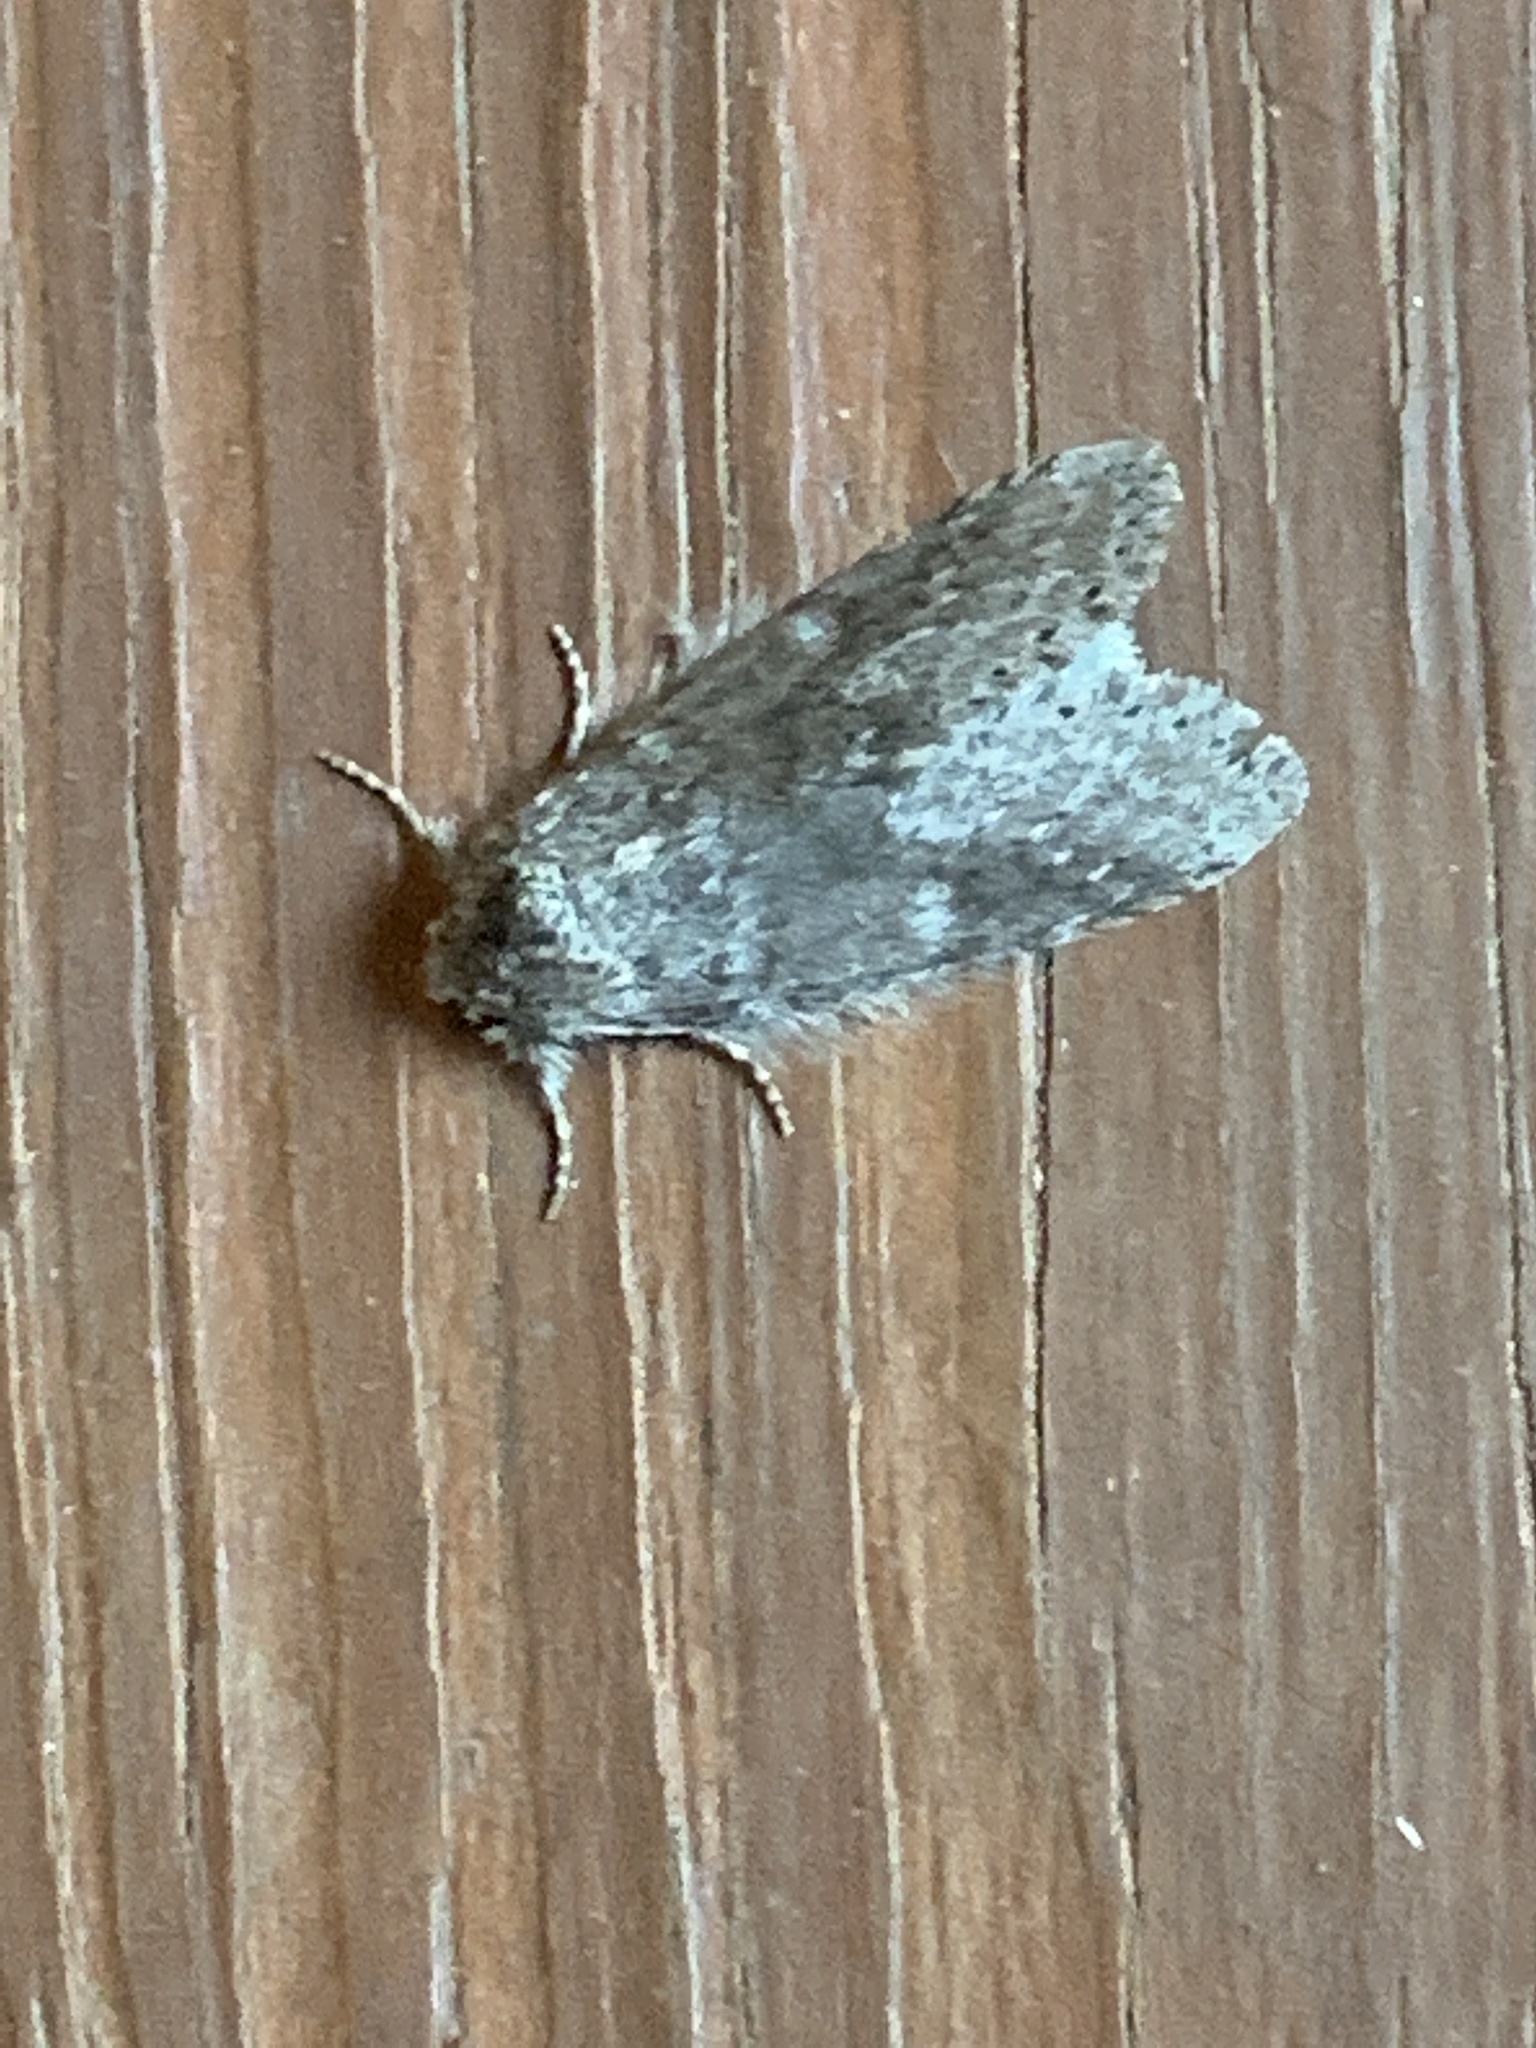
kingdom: Animalia
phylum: Arthropoda
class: Insecta
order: Lepidoptera
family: Notodontidae
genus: Lochmaeus
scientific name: Lochmaeus manteo
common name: Variable oakleaf caterpillar moth
